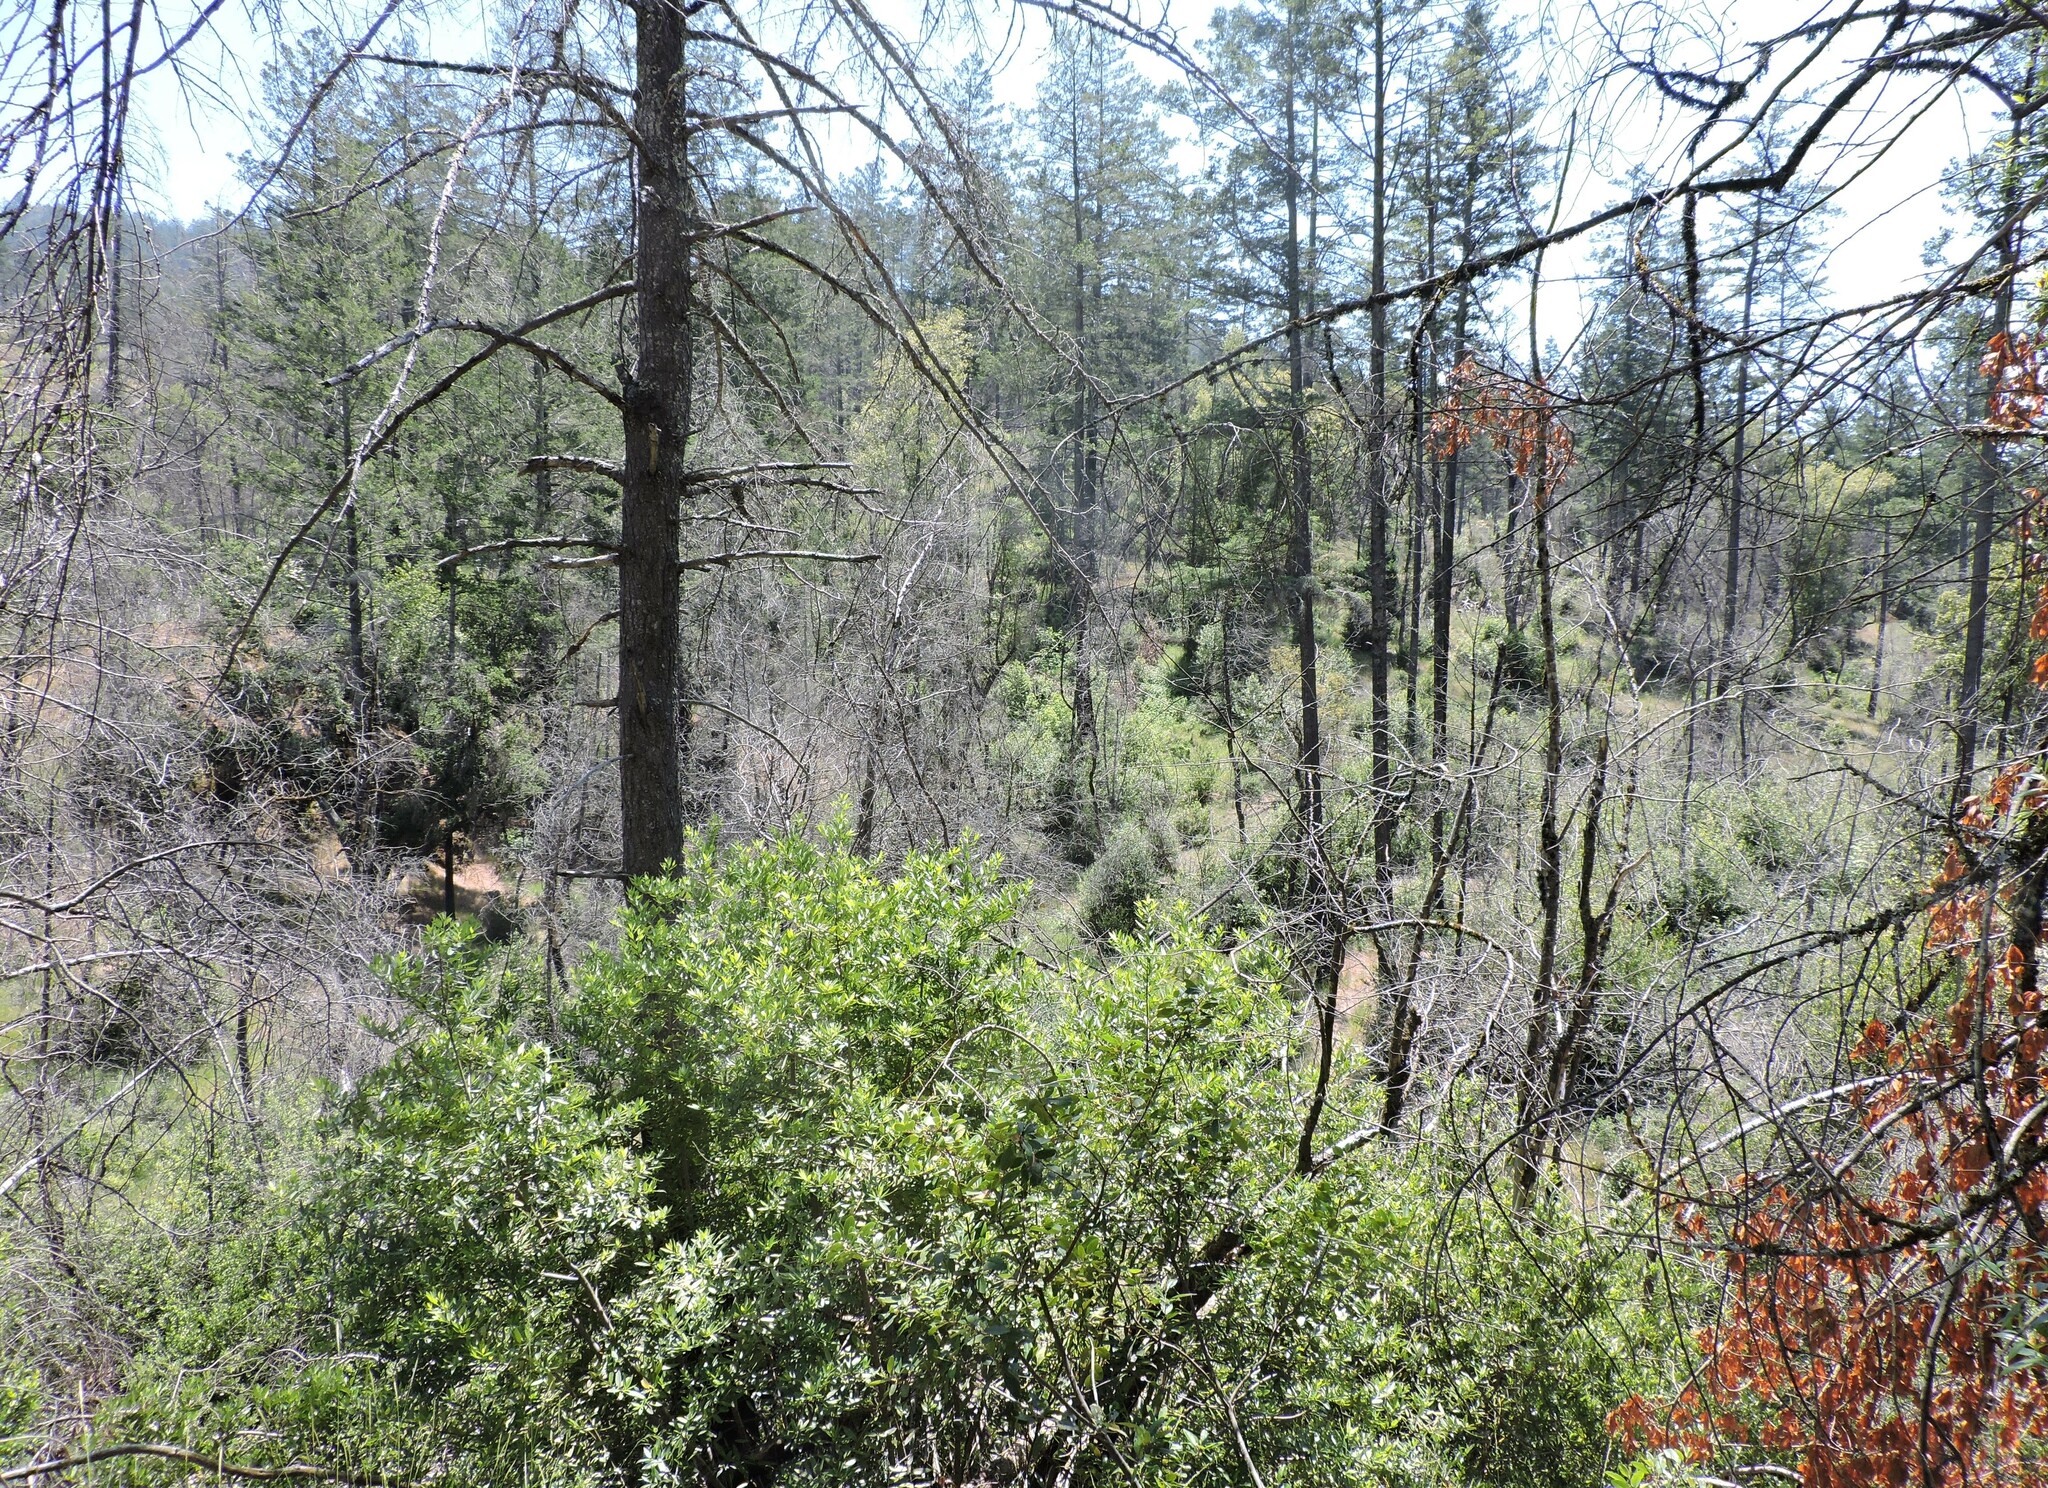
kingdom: Plantae
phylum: Tracheophyta
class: Magnoliopsida
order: Laurales
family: Lauraceae
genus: Umbellularia
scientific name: Umbellularia californica
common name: California bay
